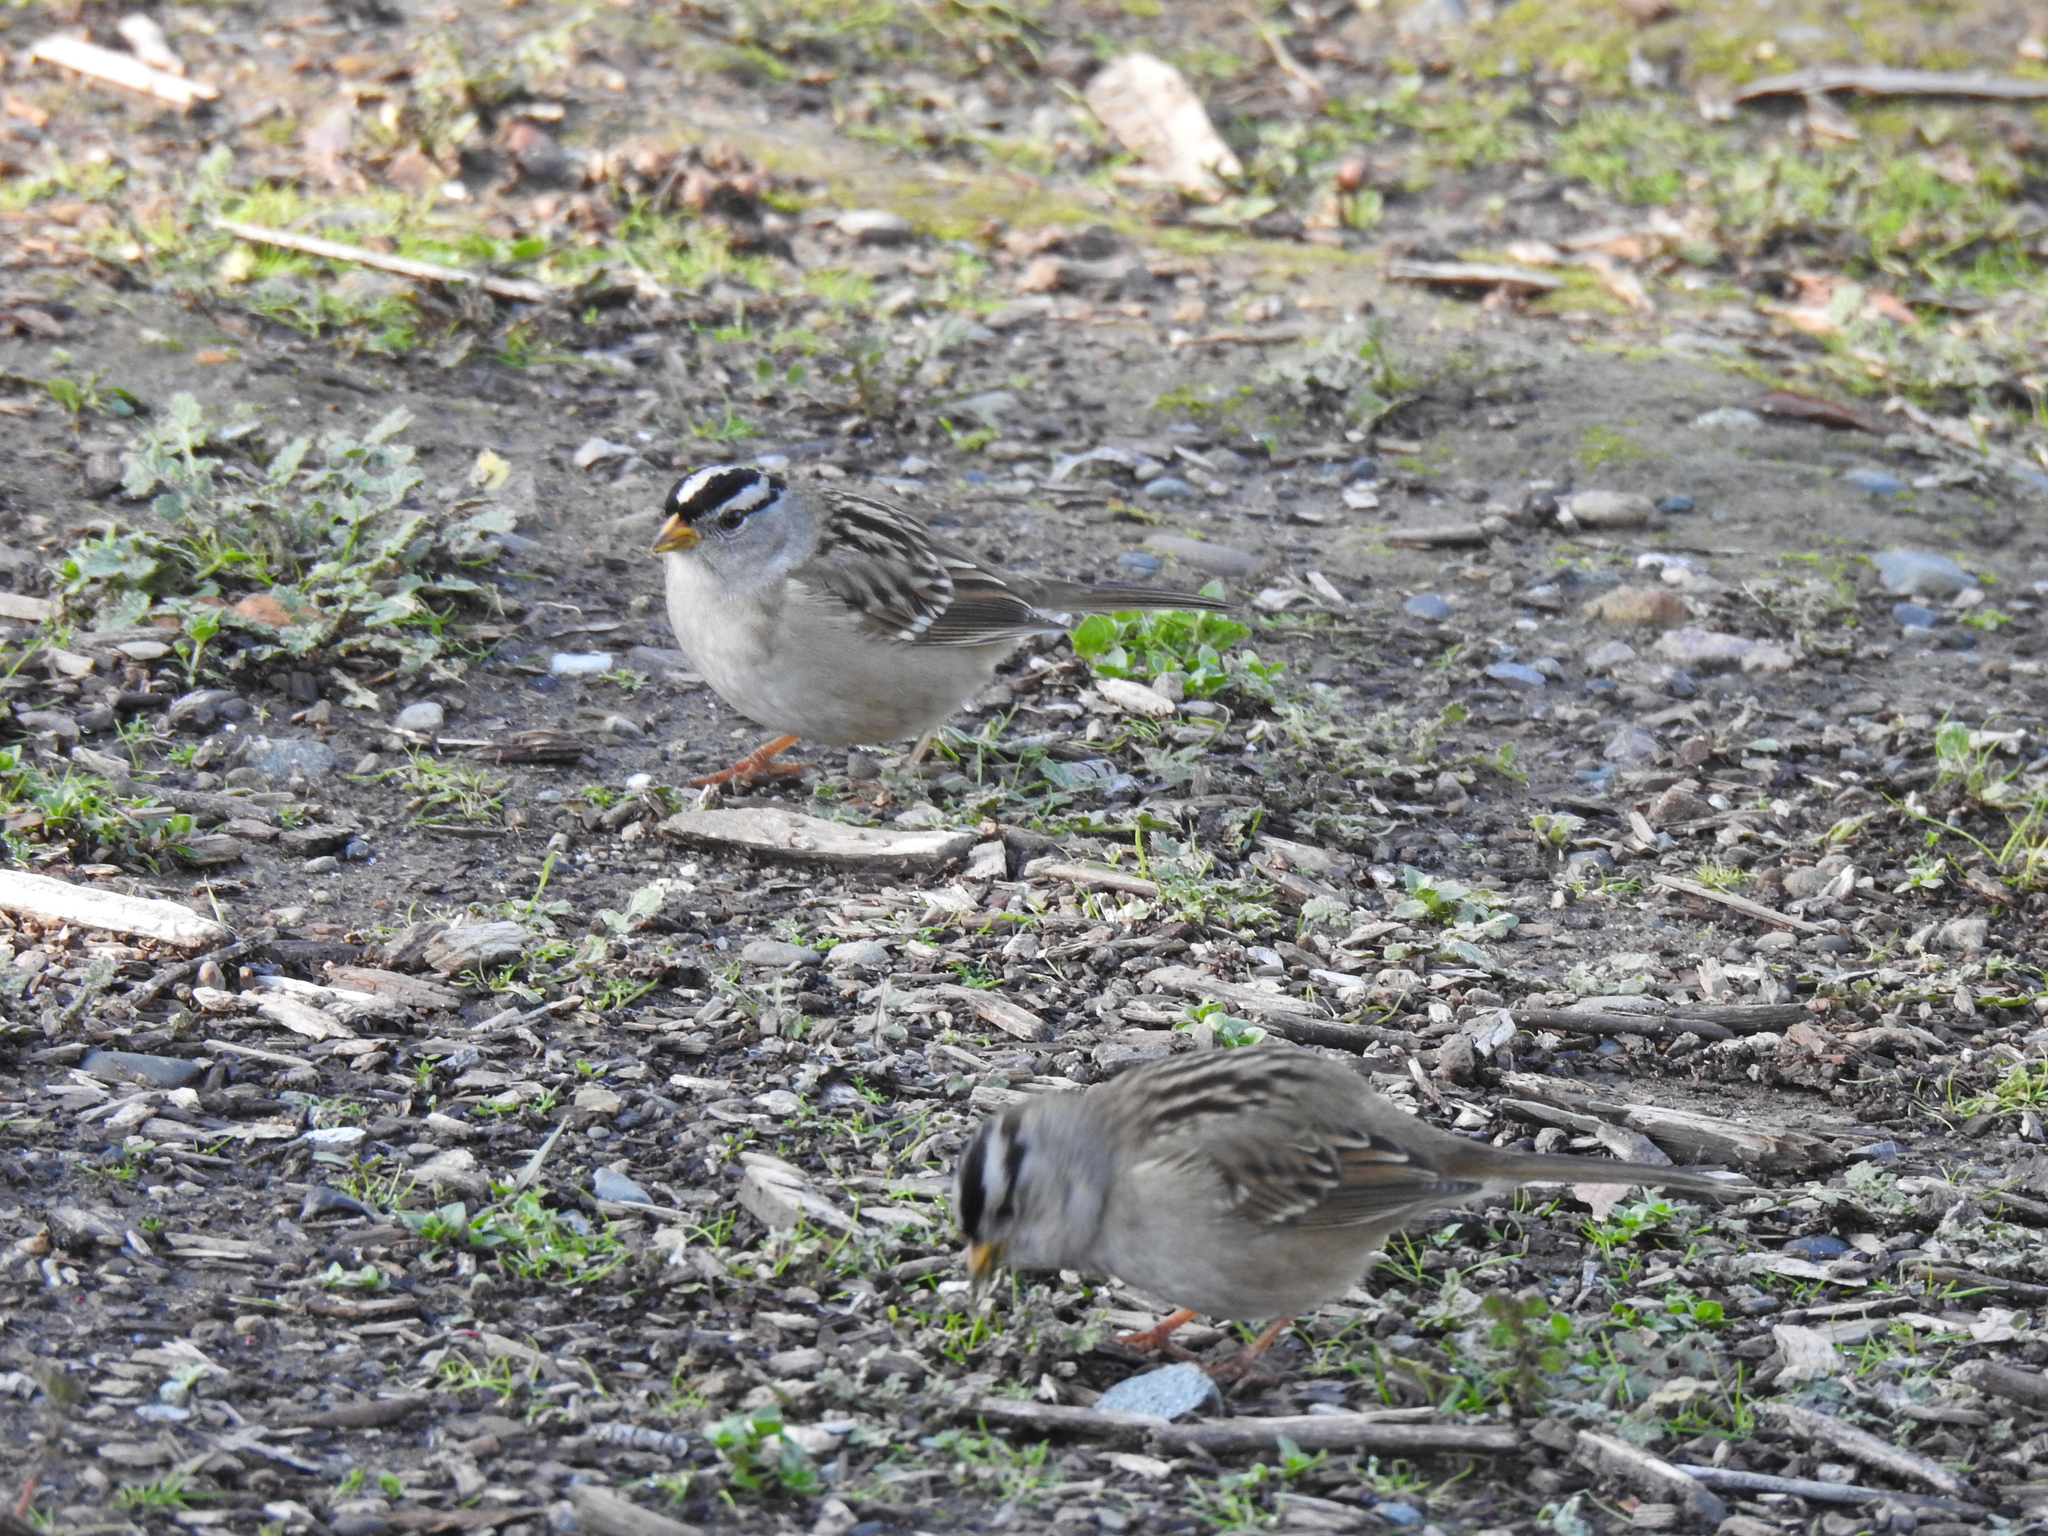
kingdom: Animalia
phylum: Chordata
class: Aves
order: Passeriformes
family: Passerellidae
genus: Zonotrichia
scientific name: Zonotrichia leucophrys
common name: White-crowned sparrow
